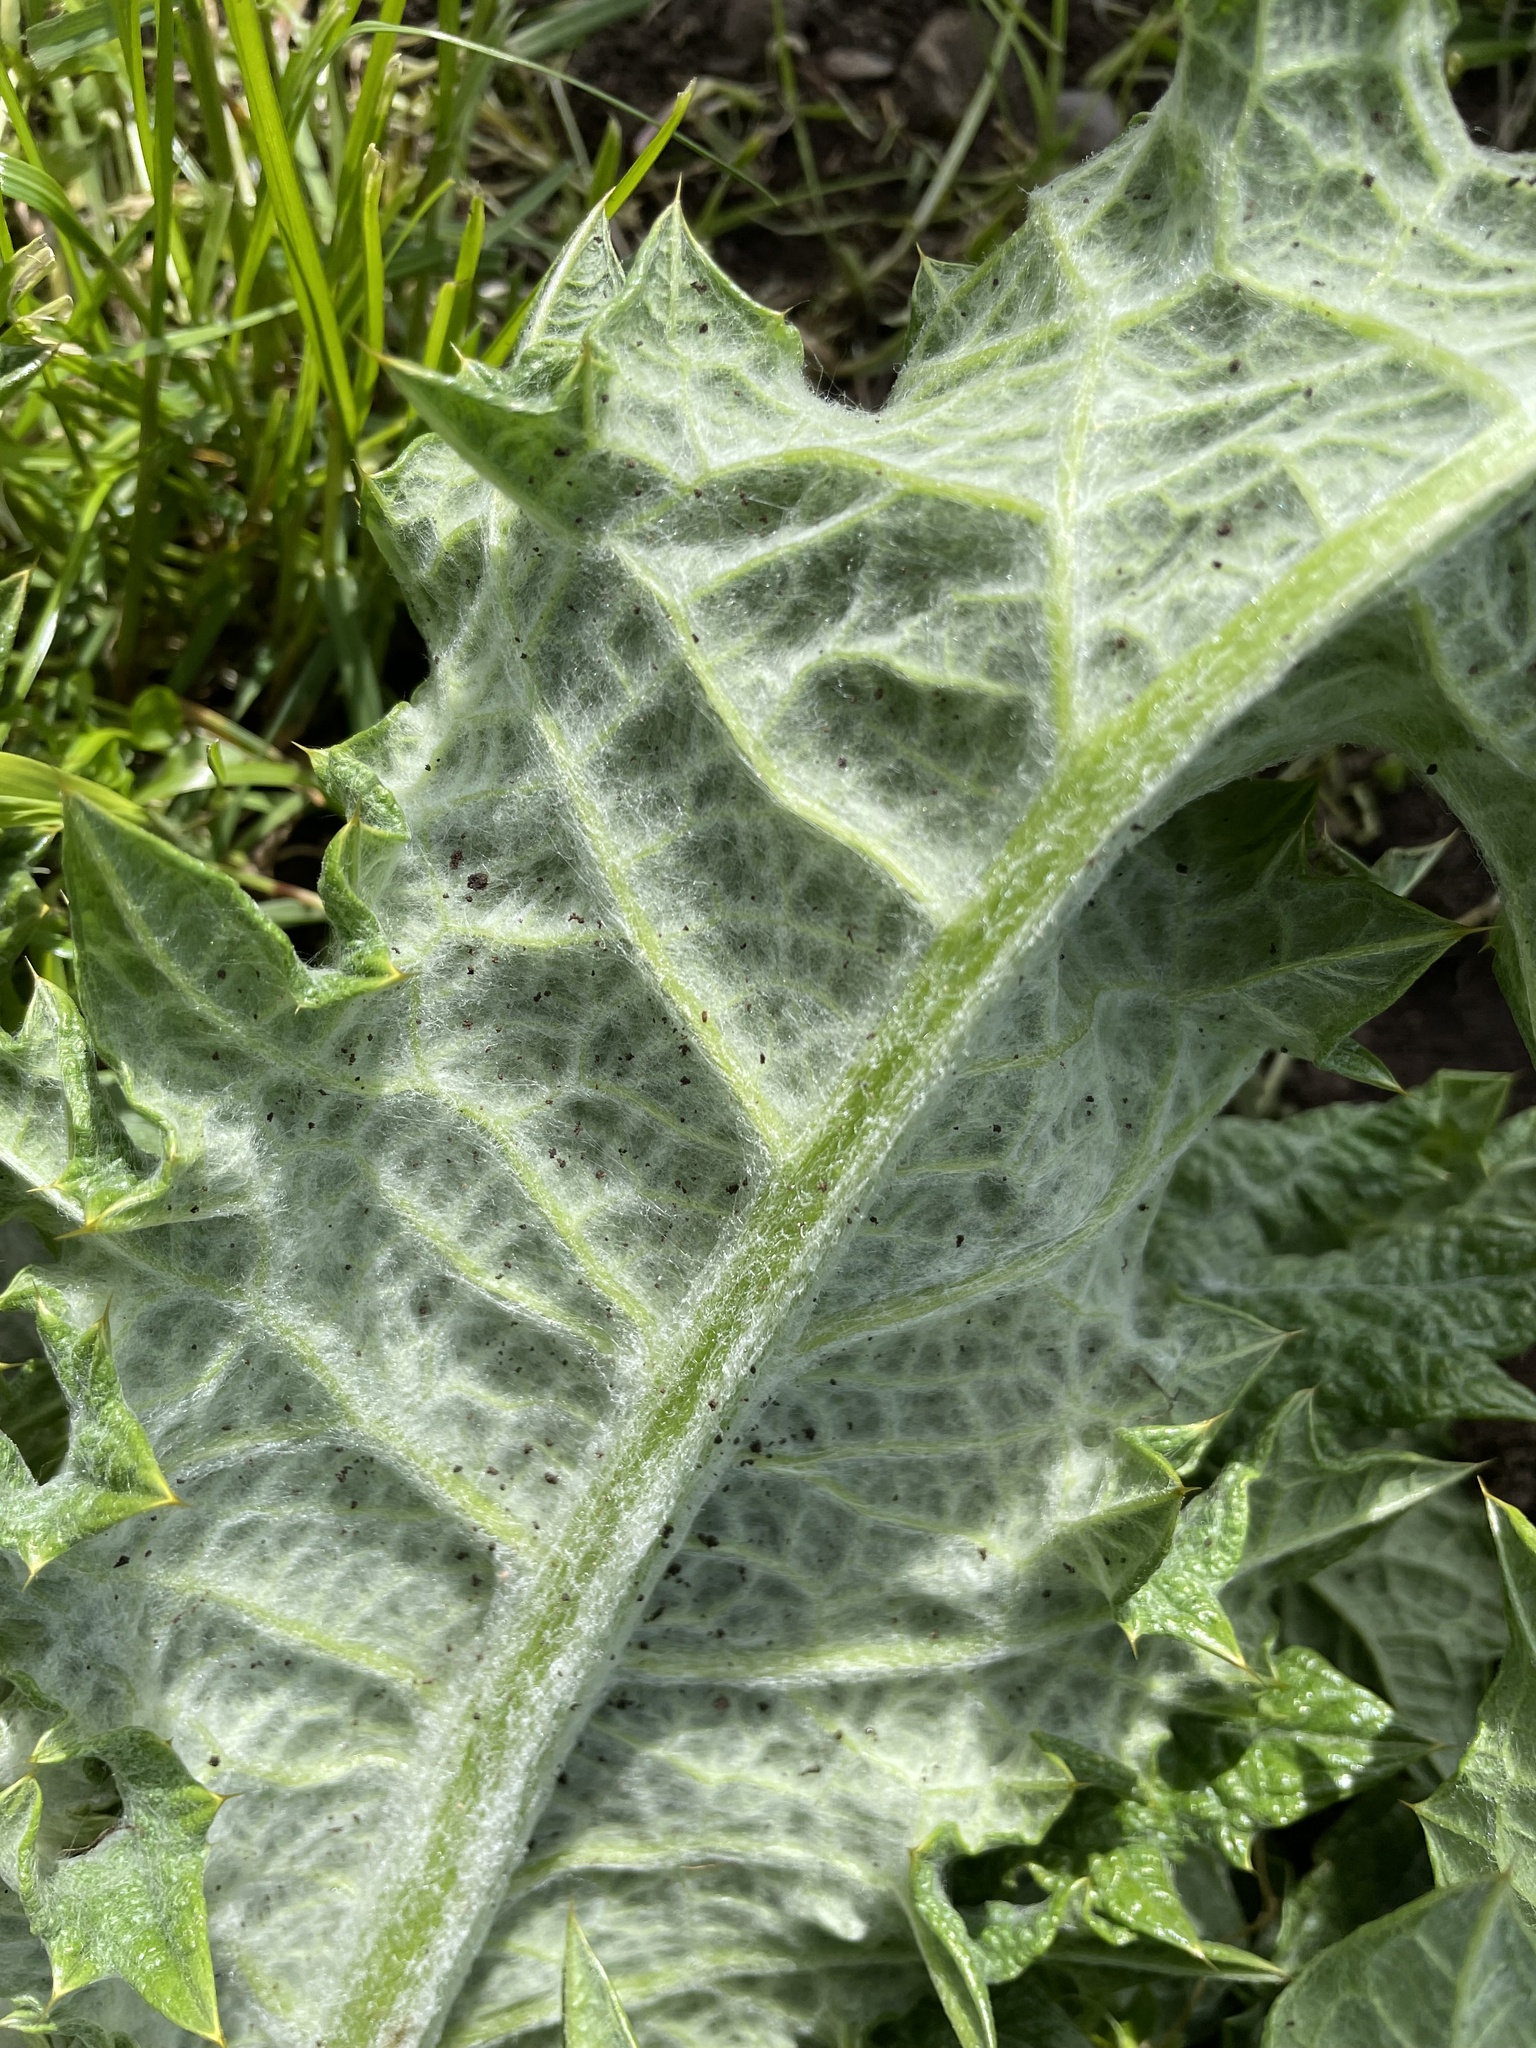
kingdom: Plantae
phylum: Tracheophyta
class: Magnoliopsida
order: Asterales
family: Asteraceae
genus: Onopordum
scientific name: Onopordum acanthium
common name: Scotch thistle
